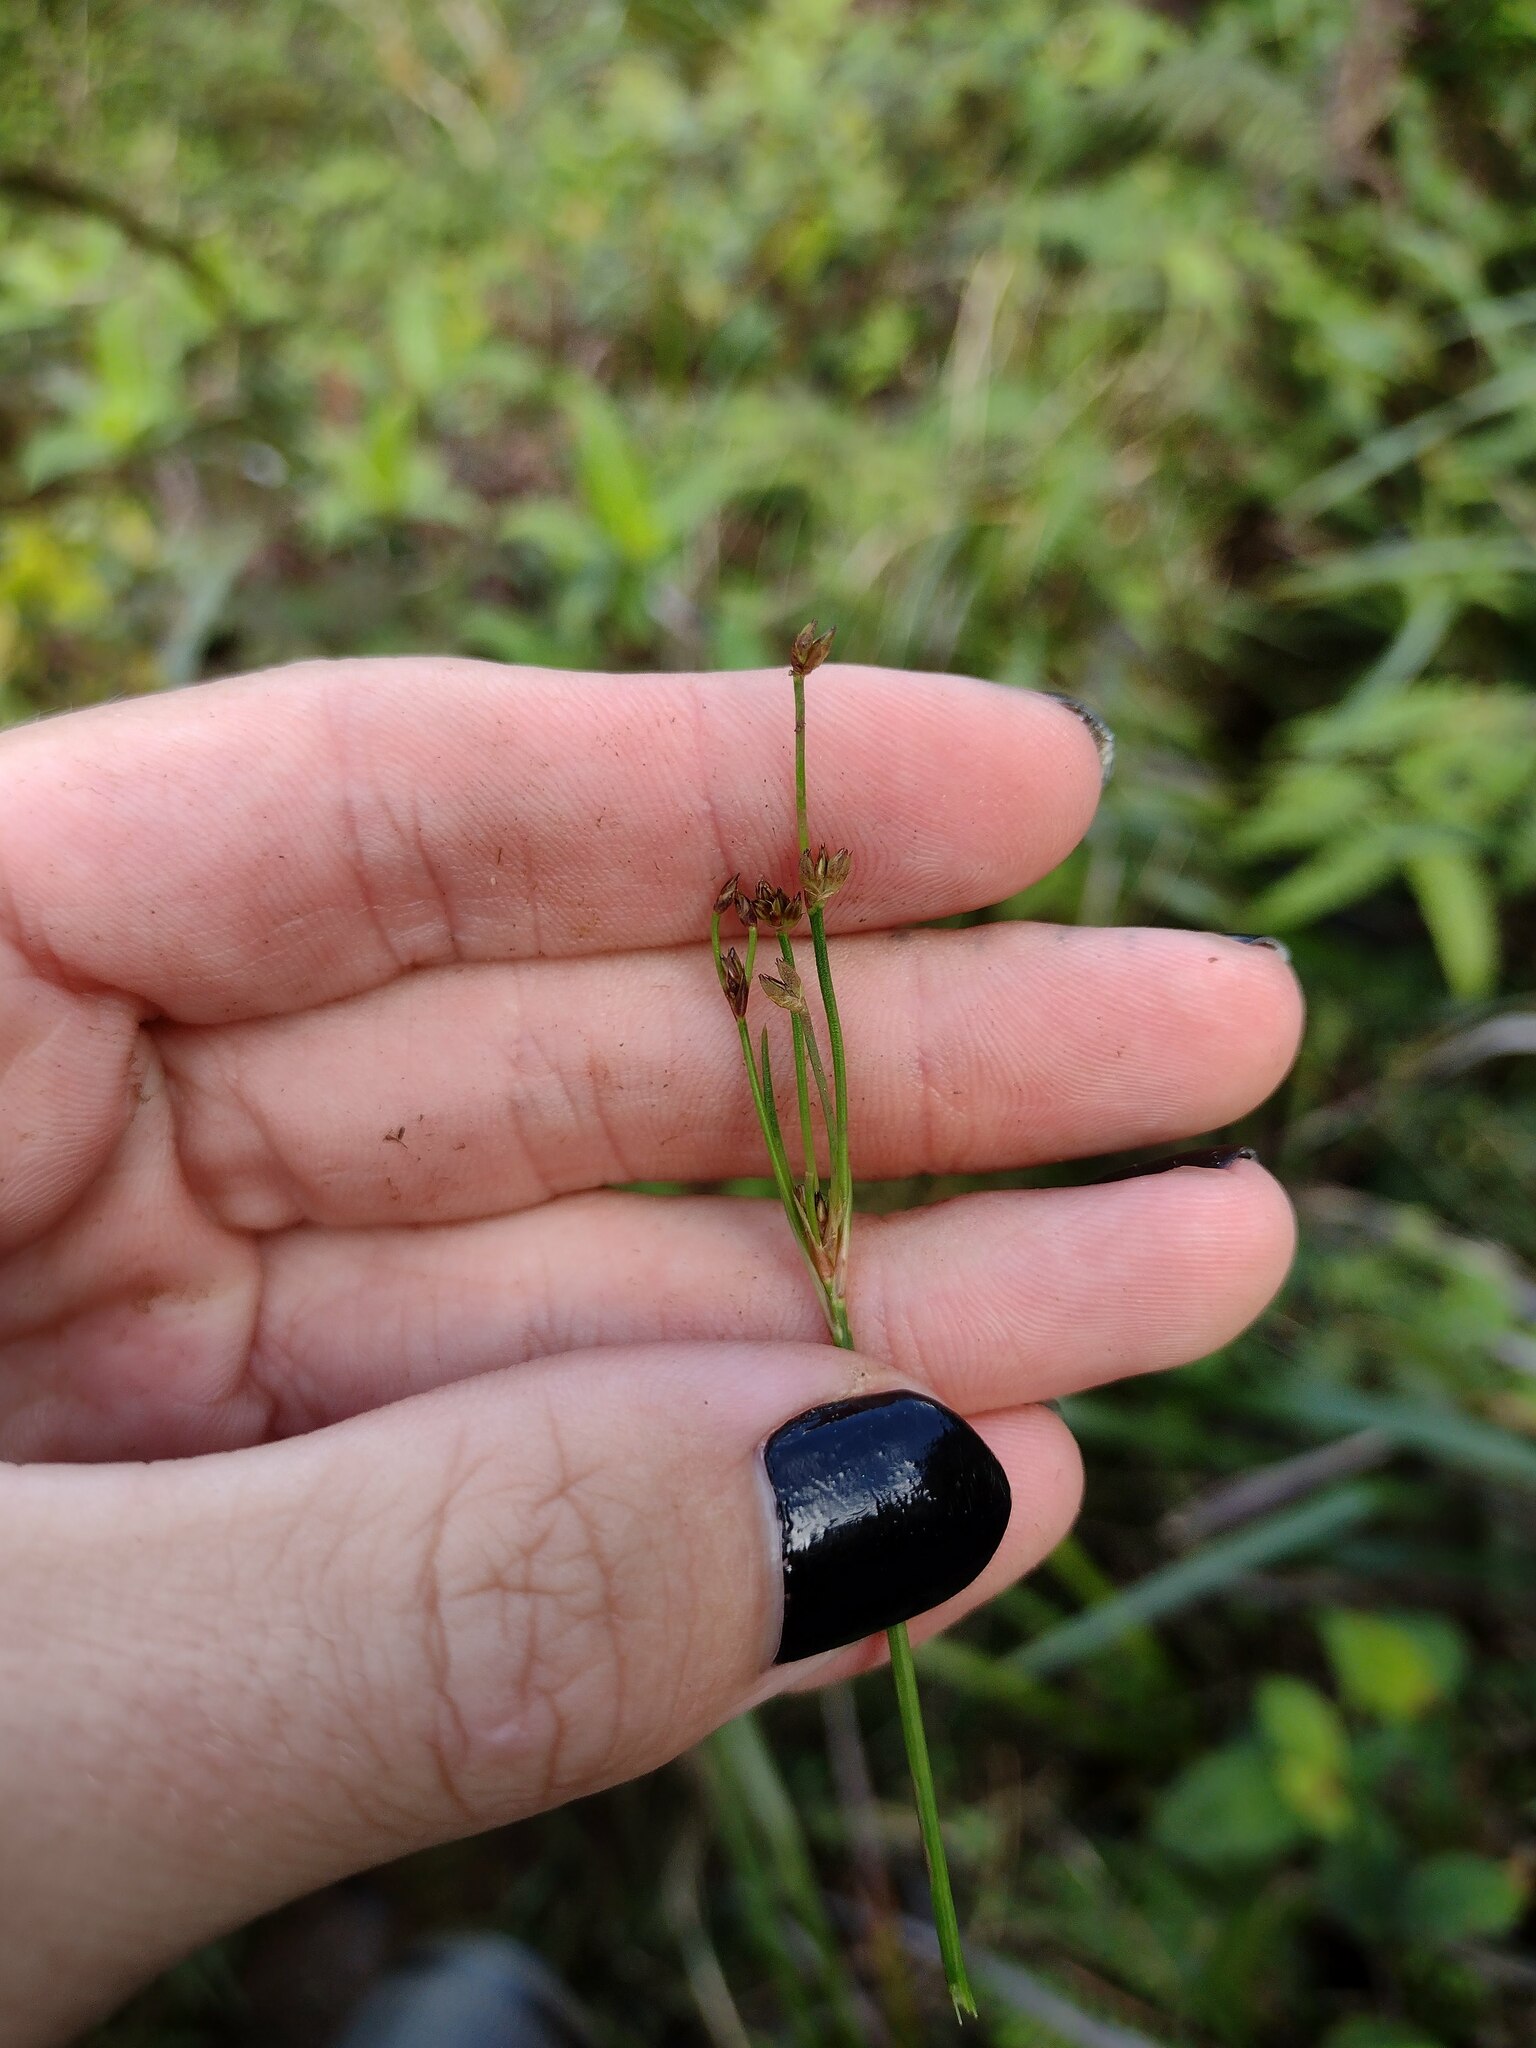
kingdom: Plantae
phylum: Tracheophyta
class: Liliopsida
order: Poales
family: Juncaceae
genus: Juncus
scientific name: Juncus planifolius
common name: Broadleaf rush
